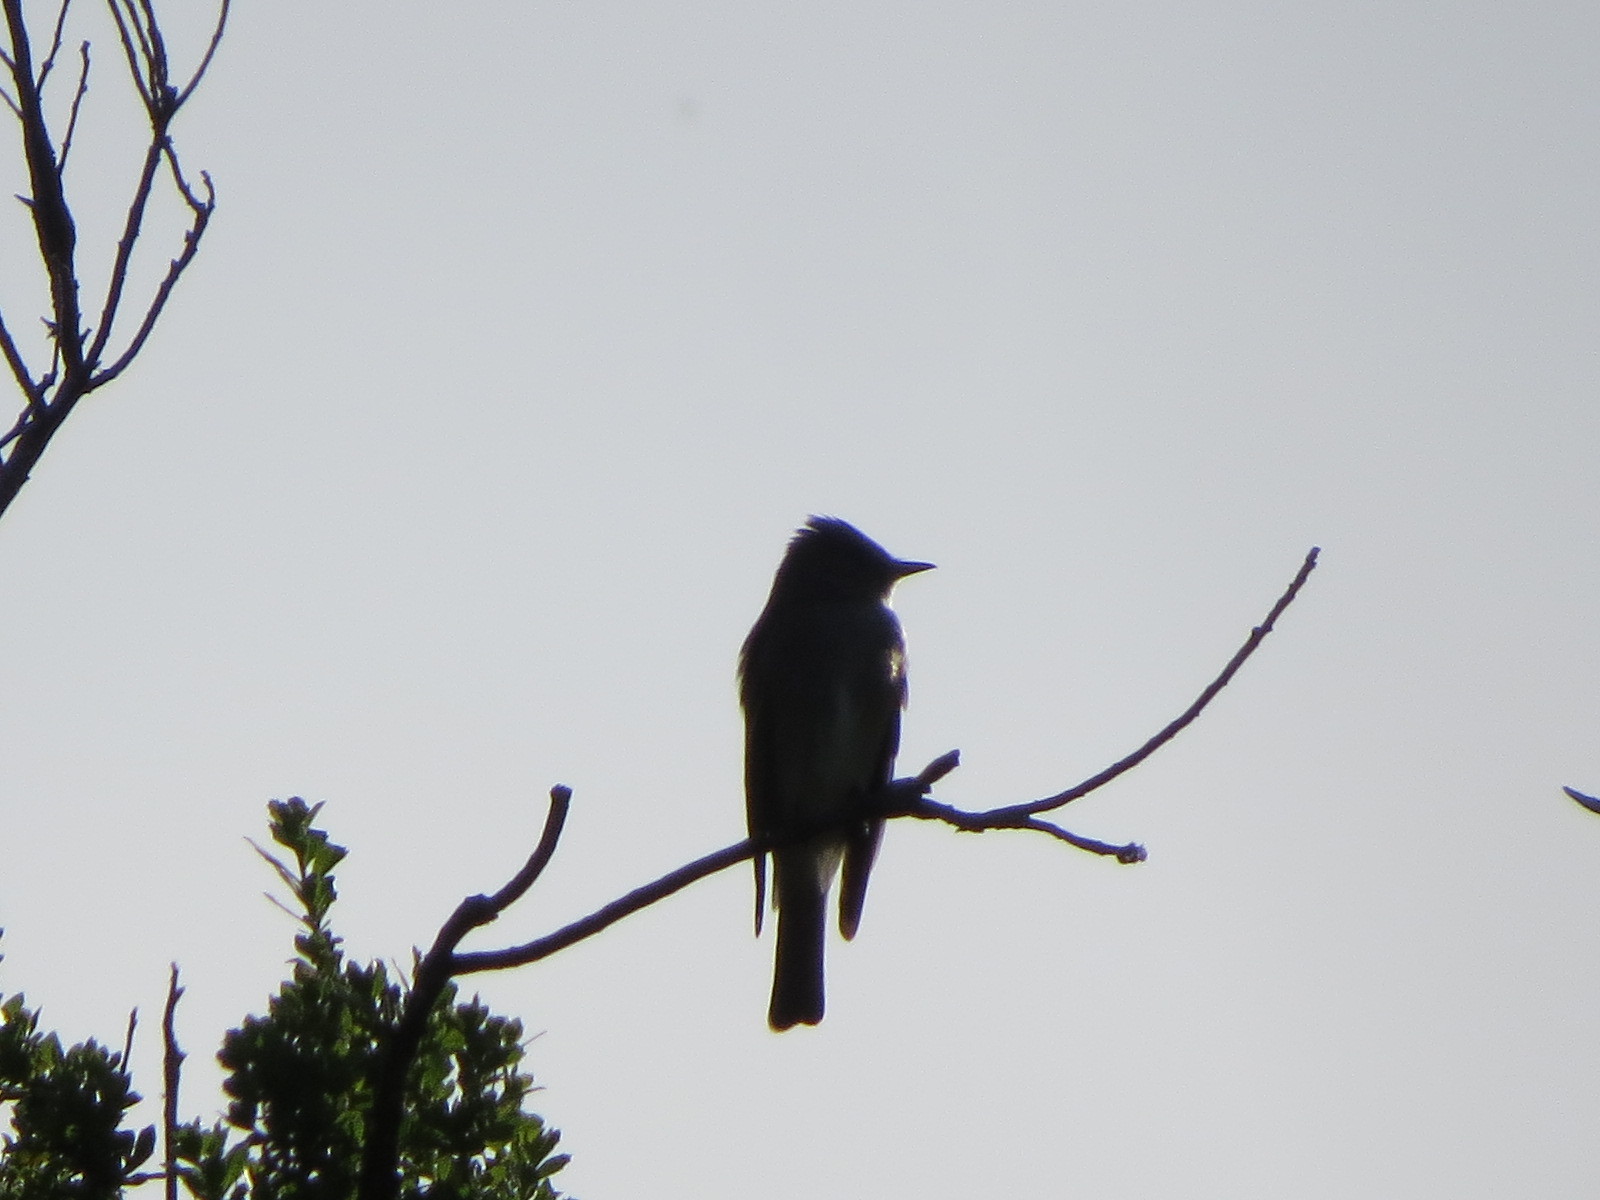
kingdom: Animalia
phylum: Chordata
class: Aves
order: Passeriformes
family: Tyrannidae
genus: Contopus
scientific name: Contopus sordidulus
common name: Western wood-pewee
